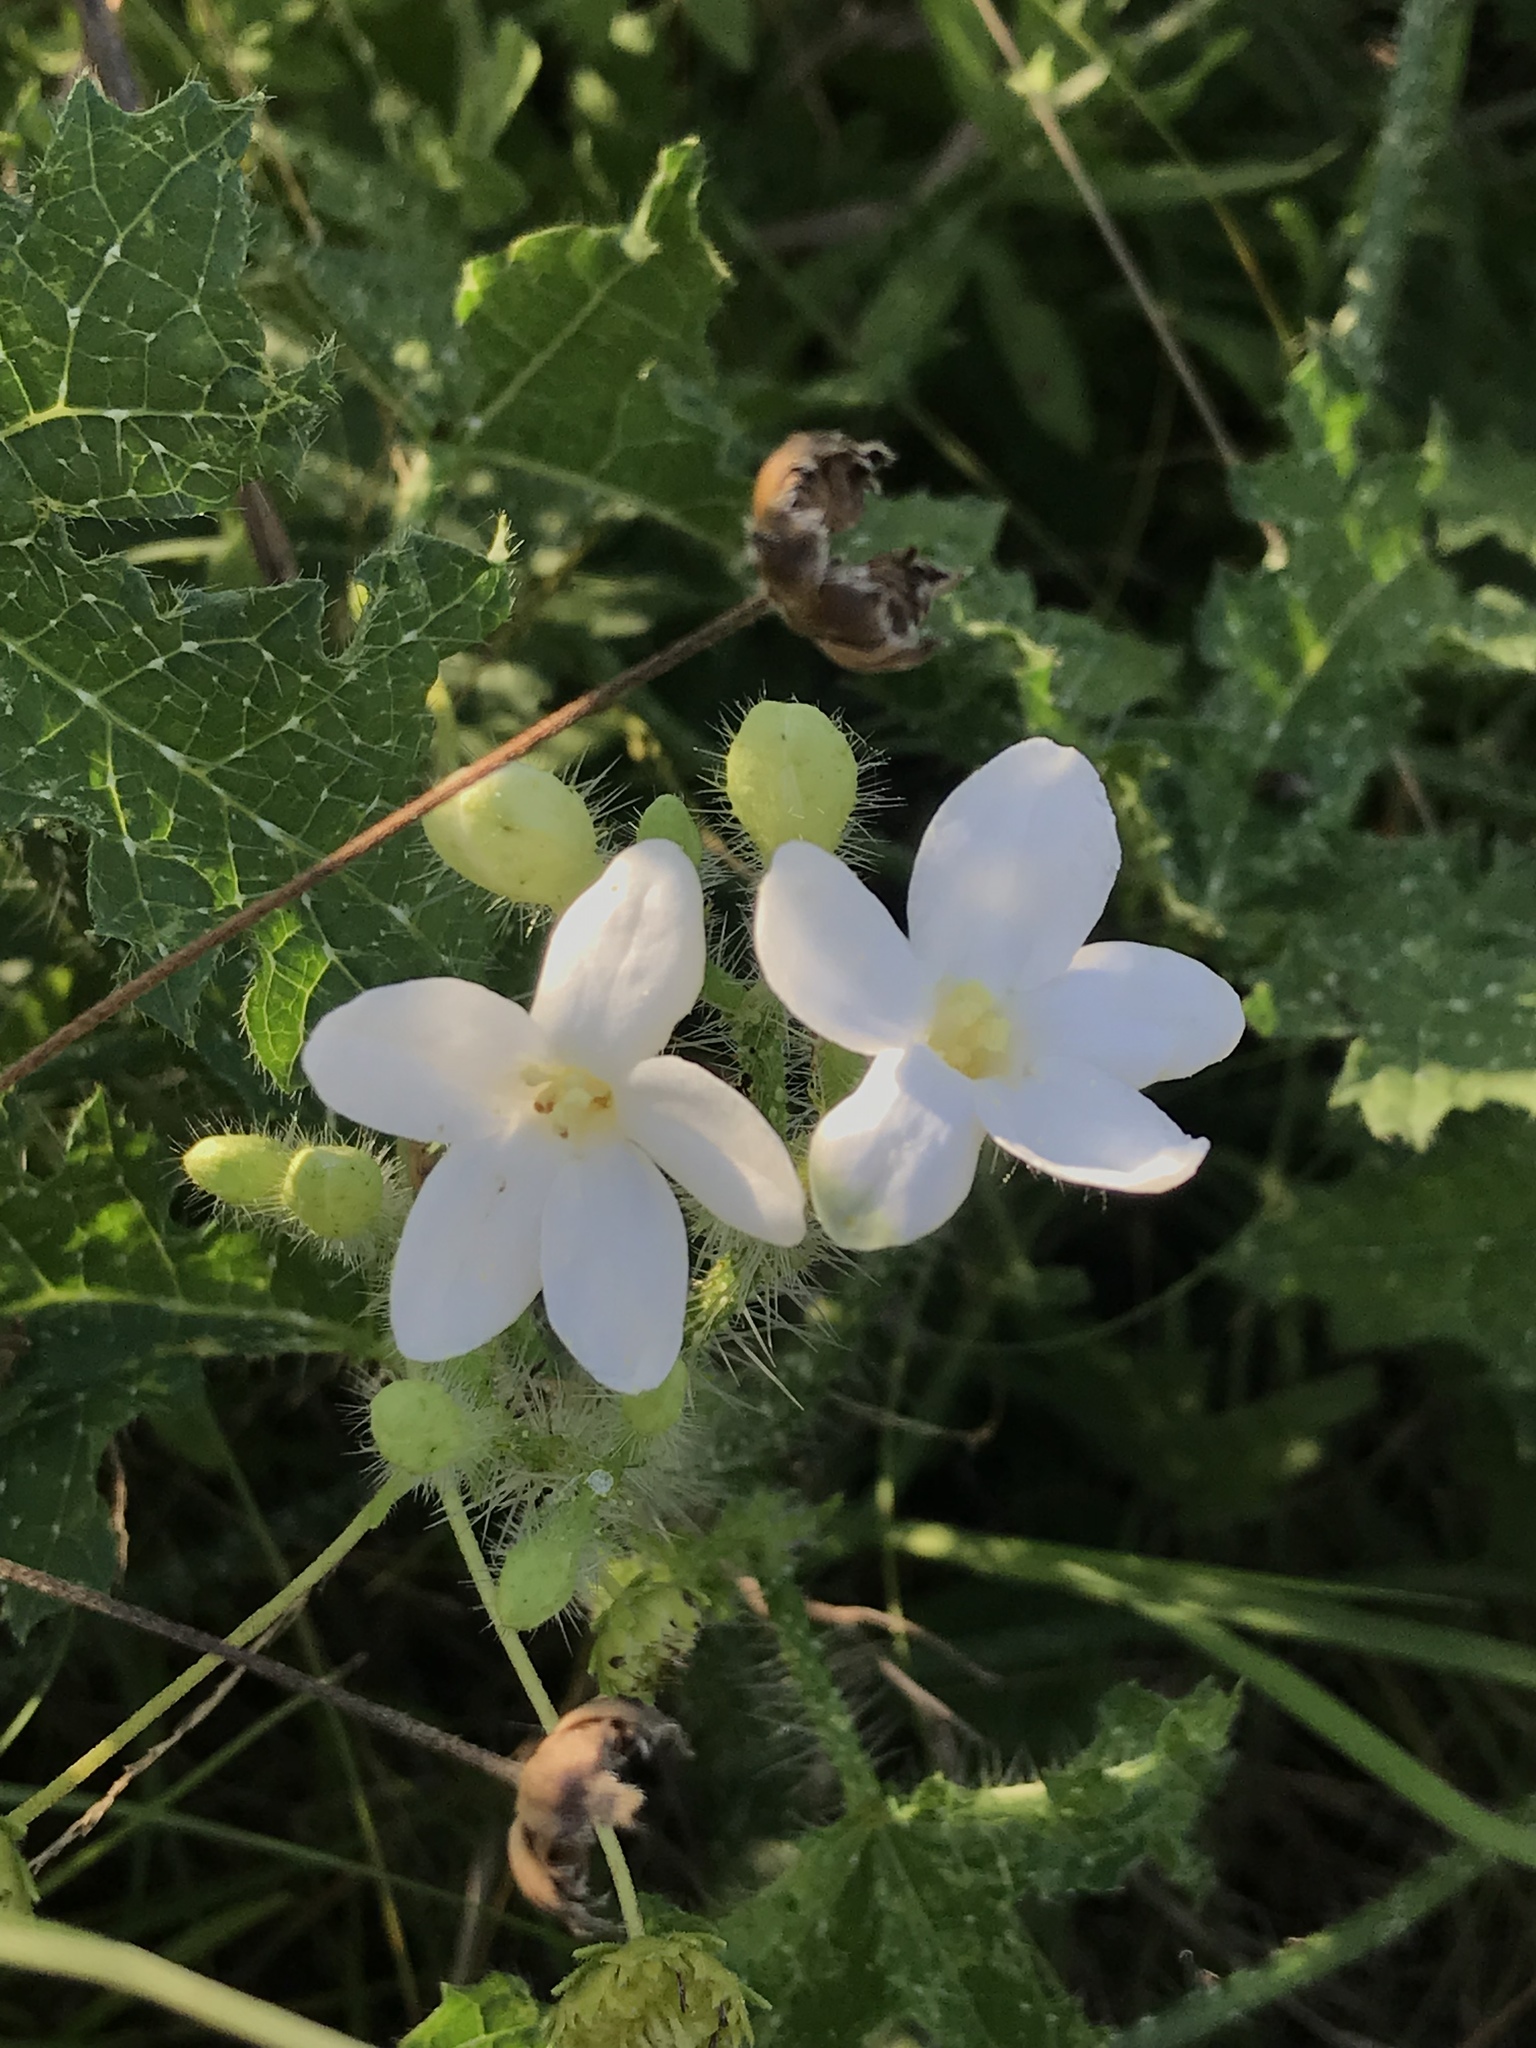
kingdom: Plantae
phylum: Tracheophyta
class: Magnoliopsida
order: Malpighiales
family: Euphorbiaceae
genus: Cnidoscolus
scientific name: Cnidoscolus texanus
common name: Texas bull-nettle
